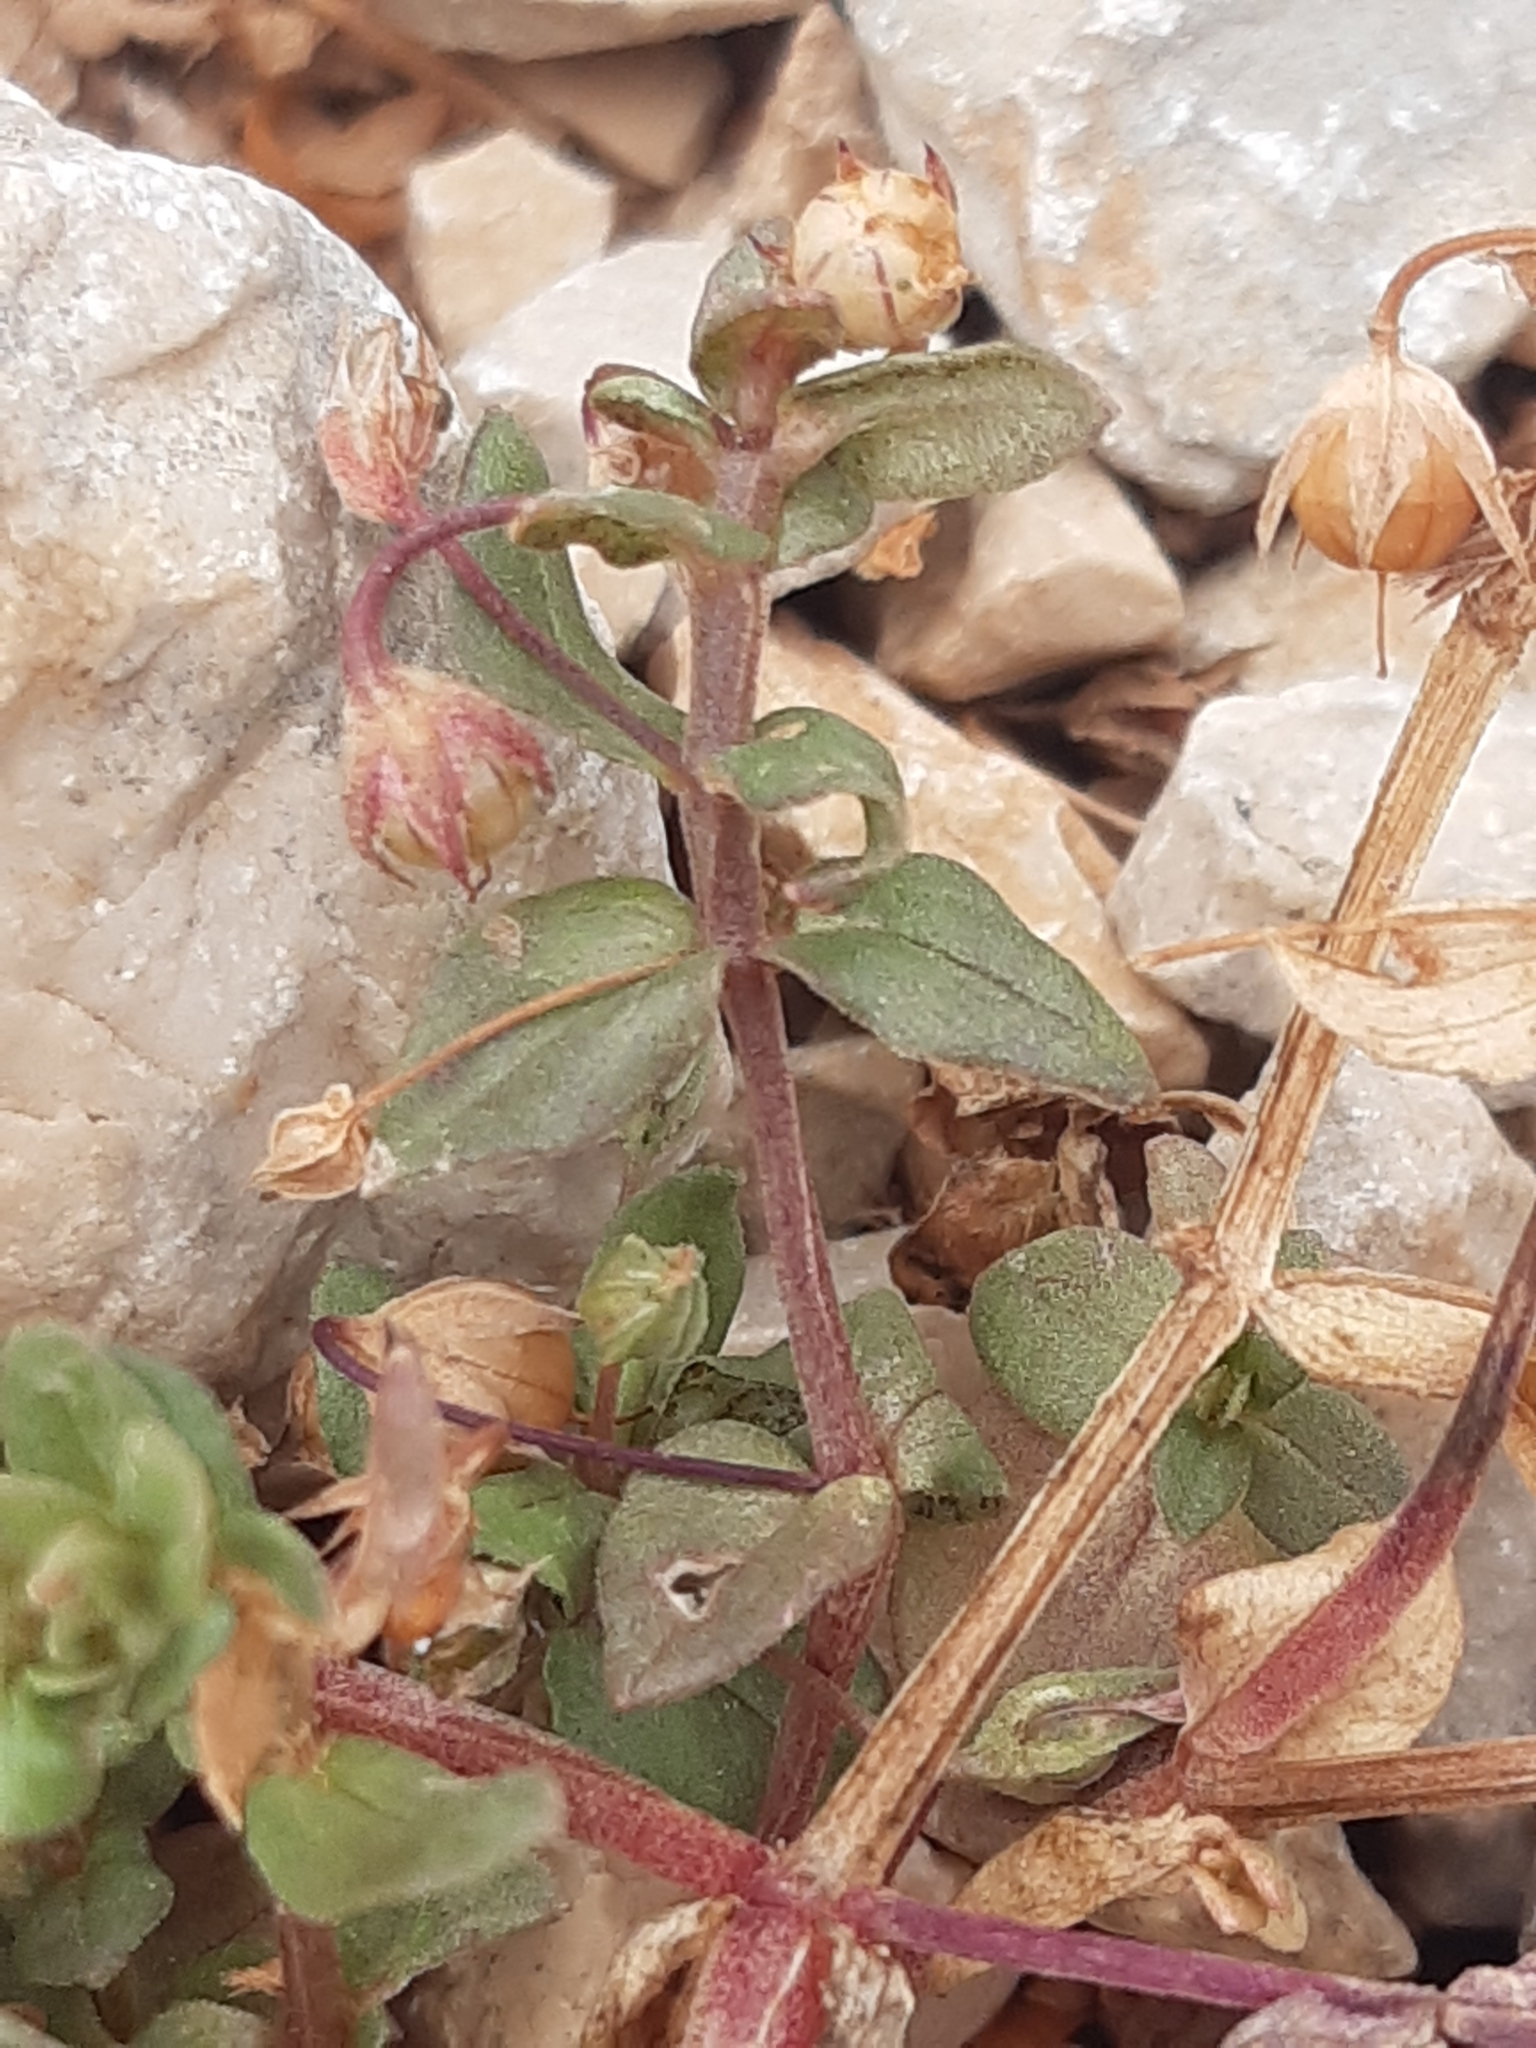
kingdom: Plantae
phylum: Tracheophyta
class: Magnoliopsida
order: Ericales
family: Primulaceae
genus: Lysimachia
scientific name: Lysimachia arvensis
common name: Scarlet pimpernel
